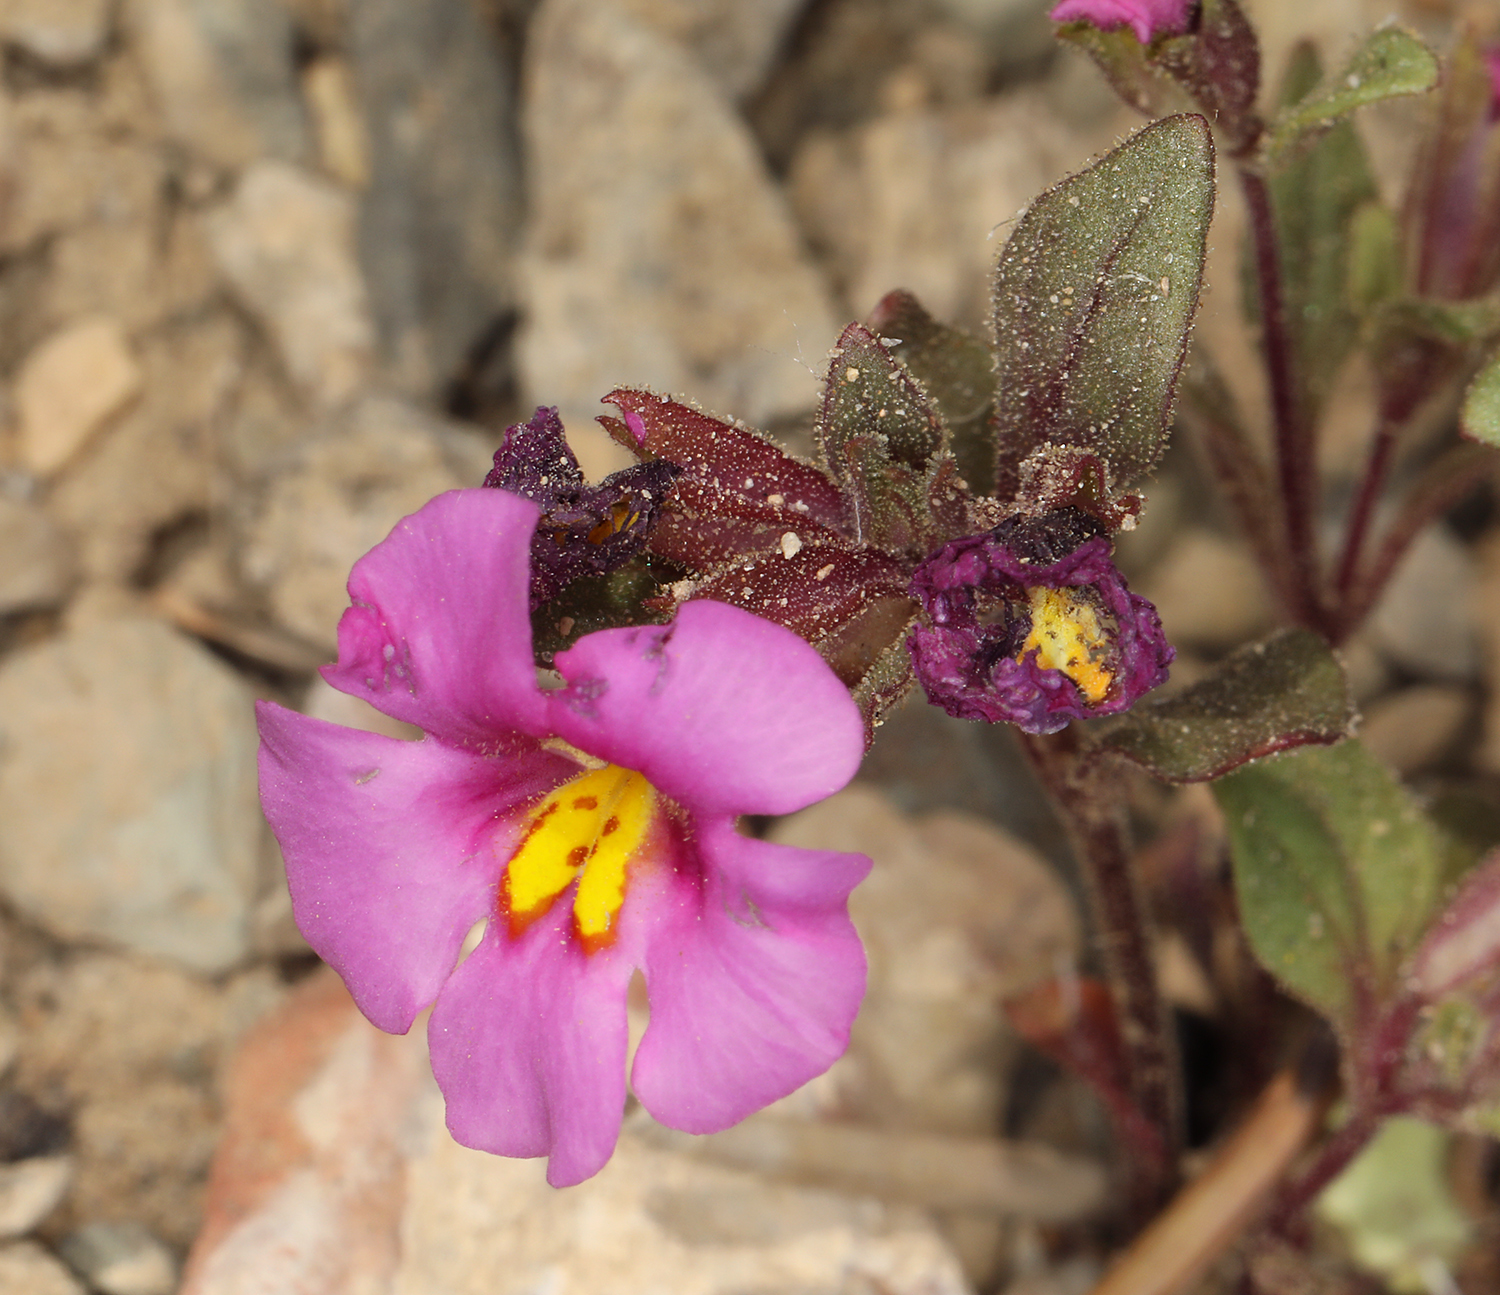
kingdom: Plantae
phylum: Tracheophyta
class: Magnoliopsida
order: Lamiales
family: Phrymaceae
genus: Diplacus
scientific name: Diplacus parryi
